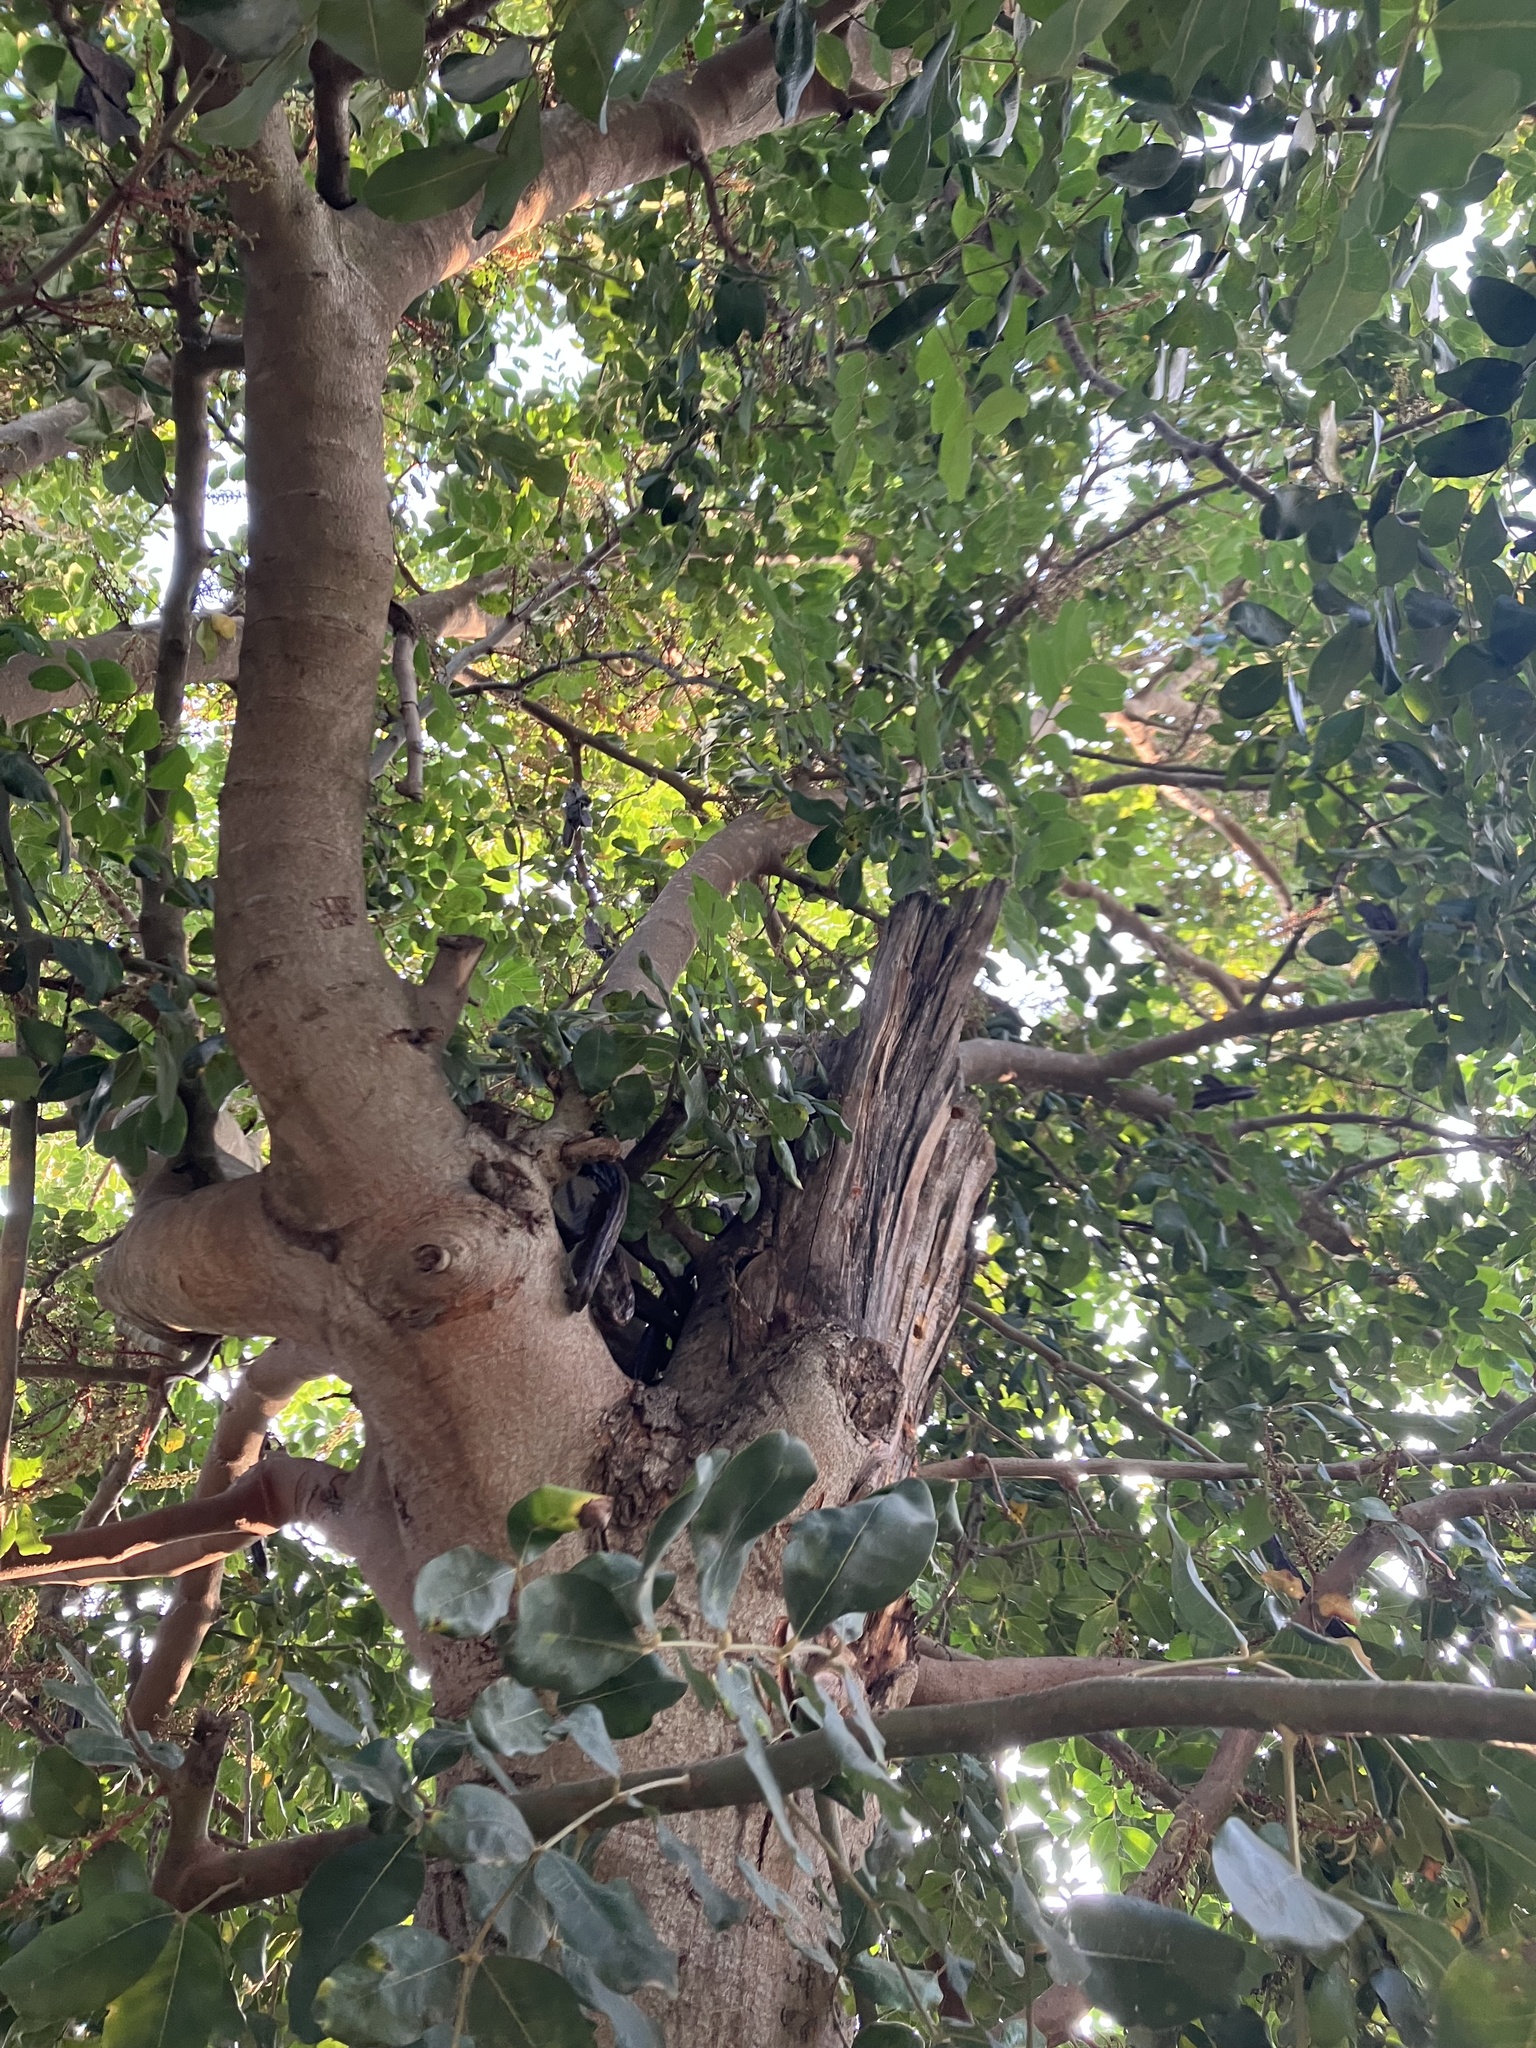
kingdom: Plantae
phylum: Tracheophyta
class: Magnoliopsida
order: Fabales
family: Fabaceae
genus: Ceratonia
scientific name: Ceratonia siliqua
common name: Carob
